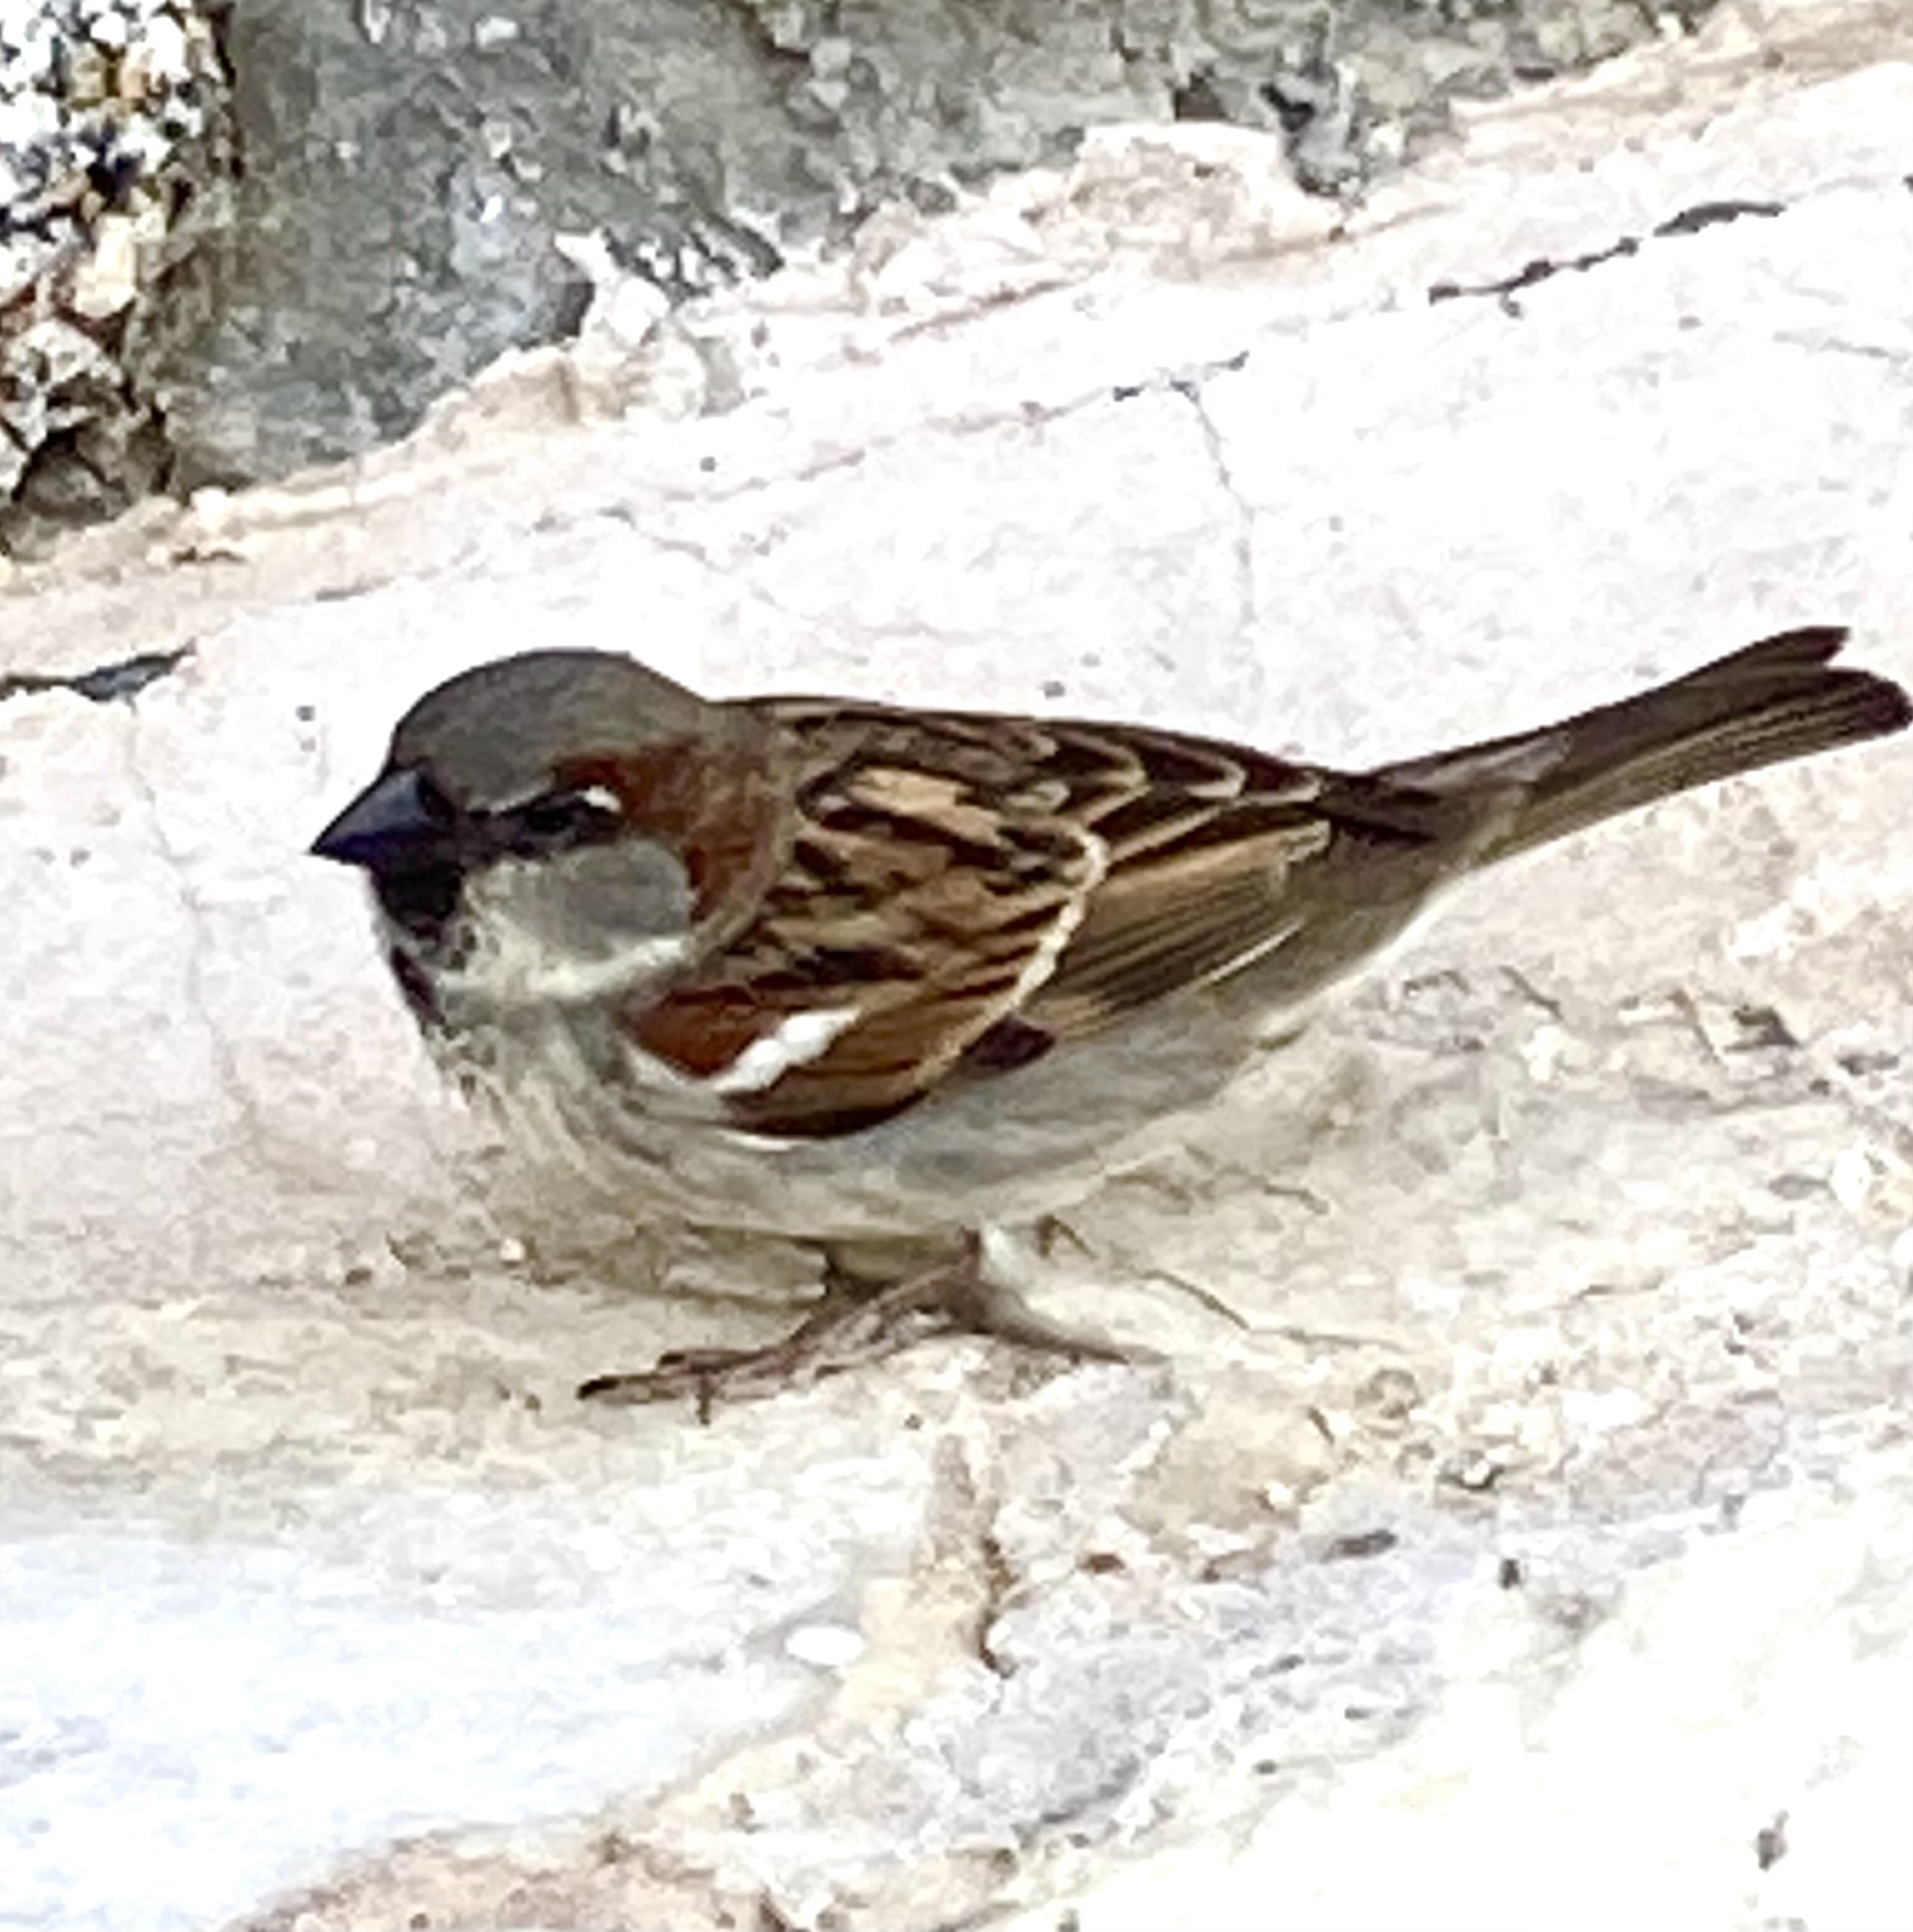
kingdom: Animalia
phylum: Chordata
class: Aves
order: Passeriformes
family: Passeridae
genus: Passer
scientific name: Passer domesticus
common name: House sparrow
